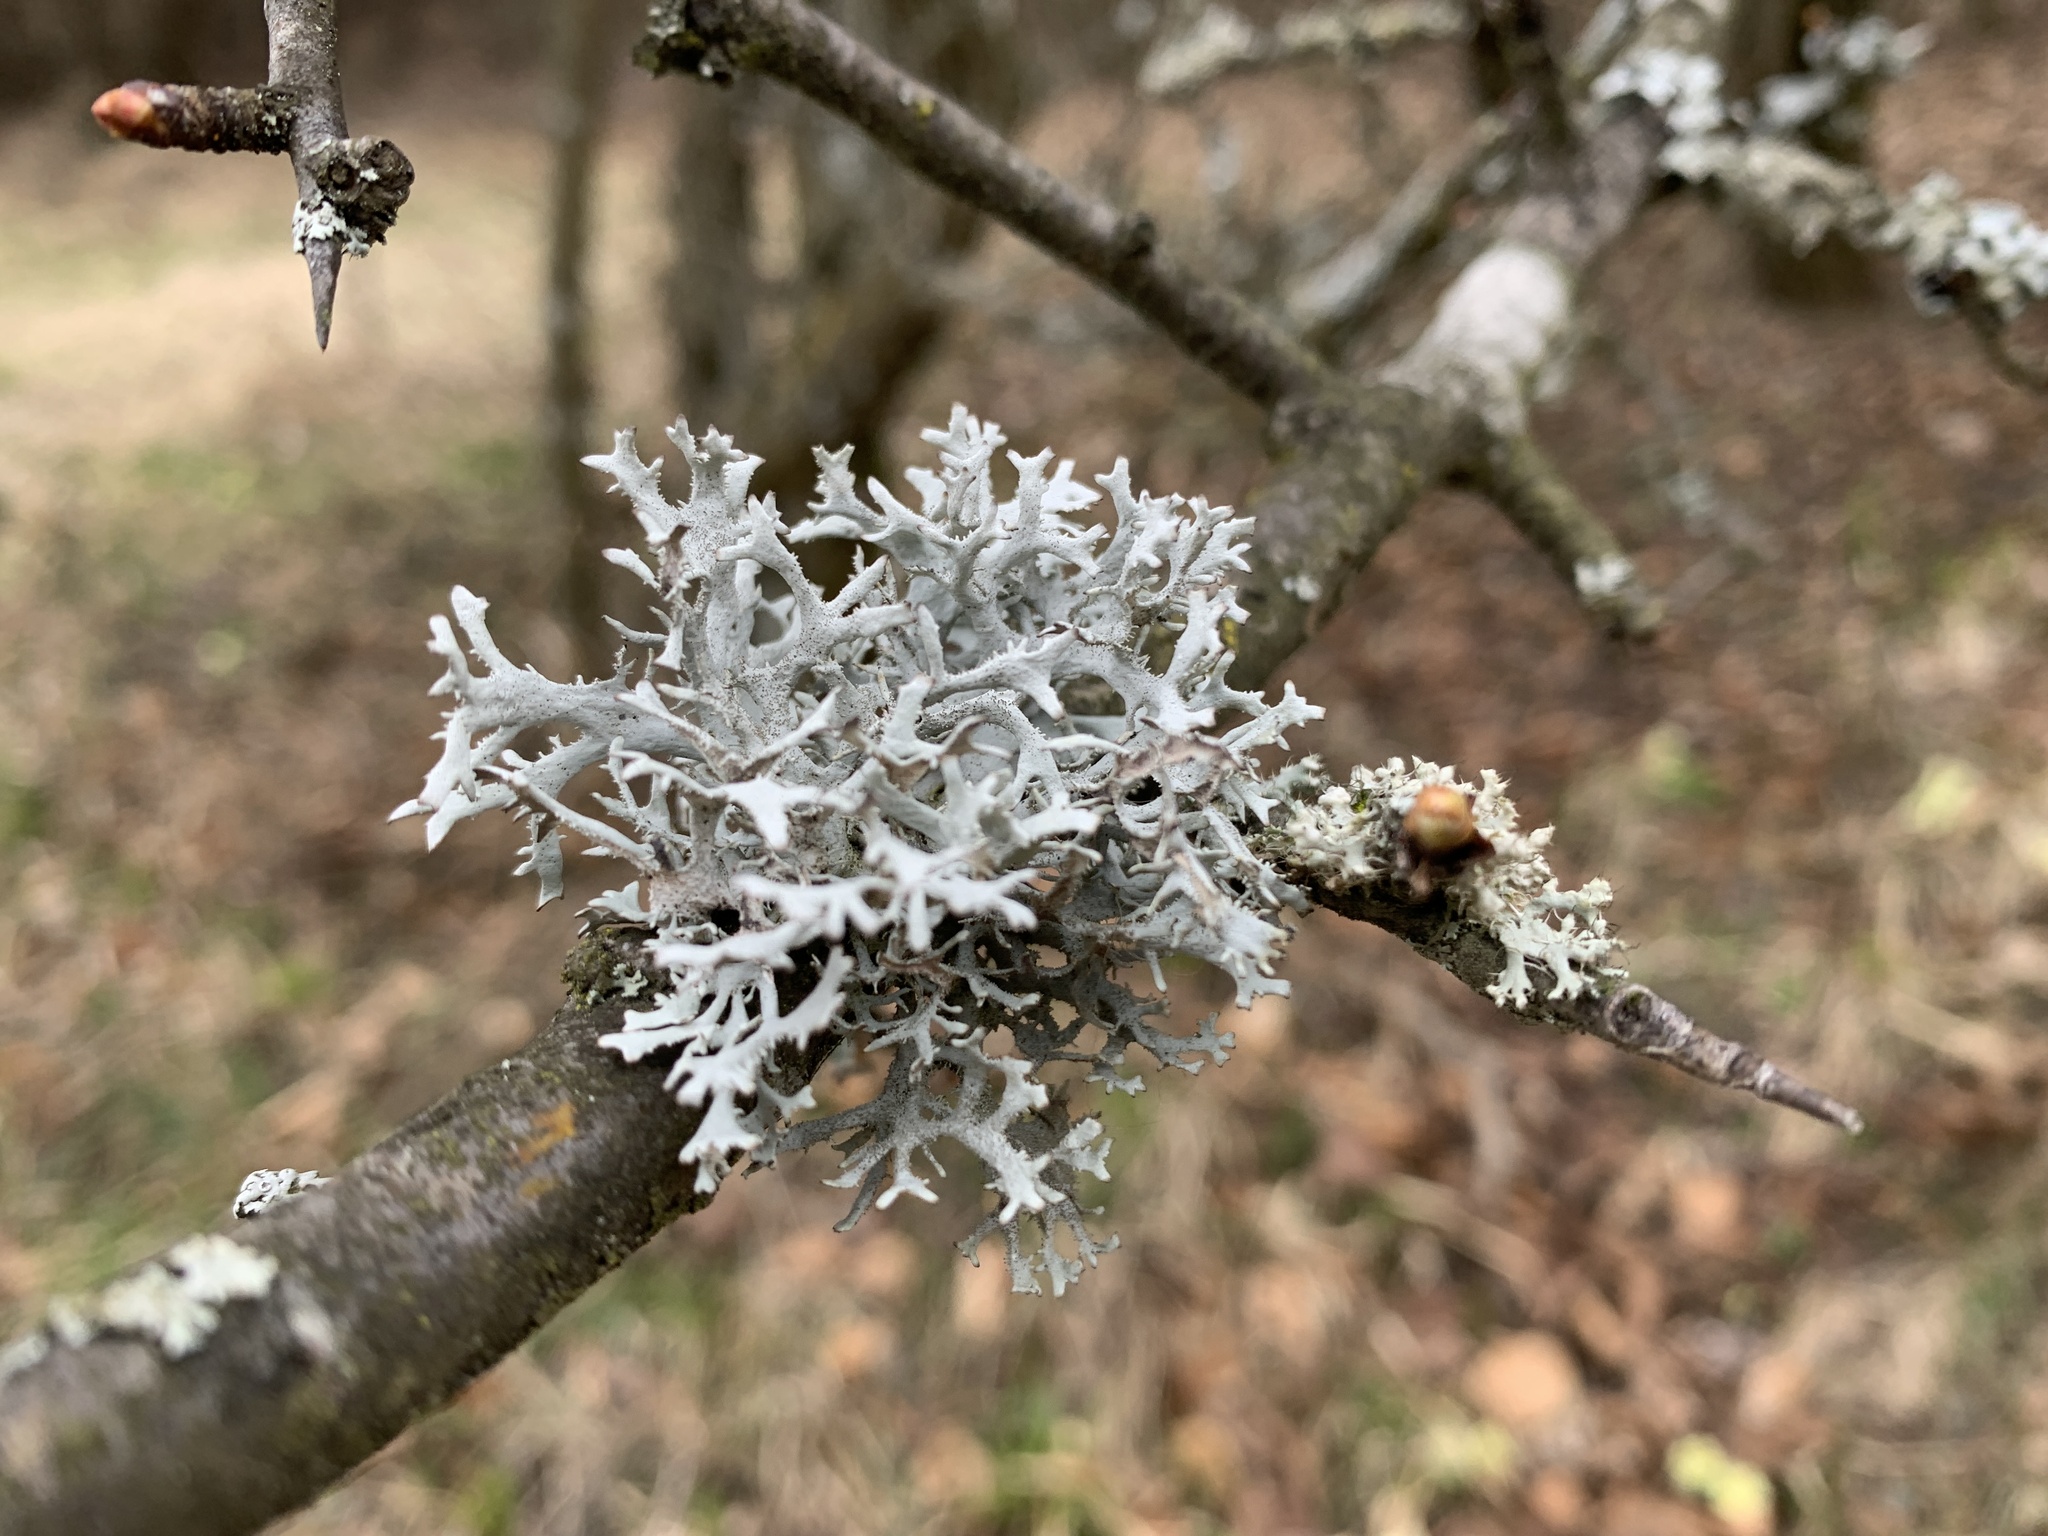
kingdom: Fungi
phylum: Ascomycota
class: Lecanoromycetes
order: Lecanorales
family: Parmeliaceae
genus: Pseudevernia
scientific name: Pseudevernia furfuracea
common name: Tree moss
